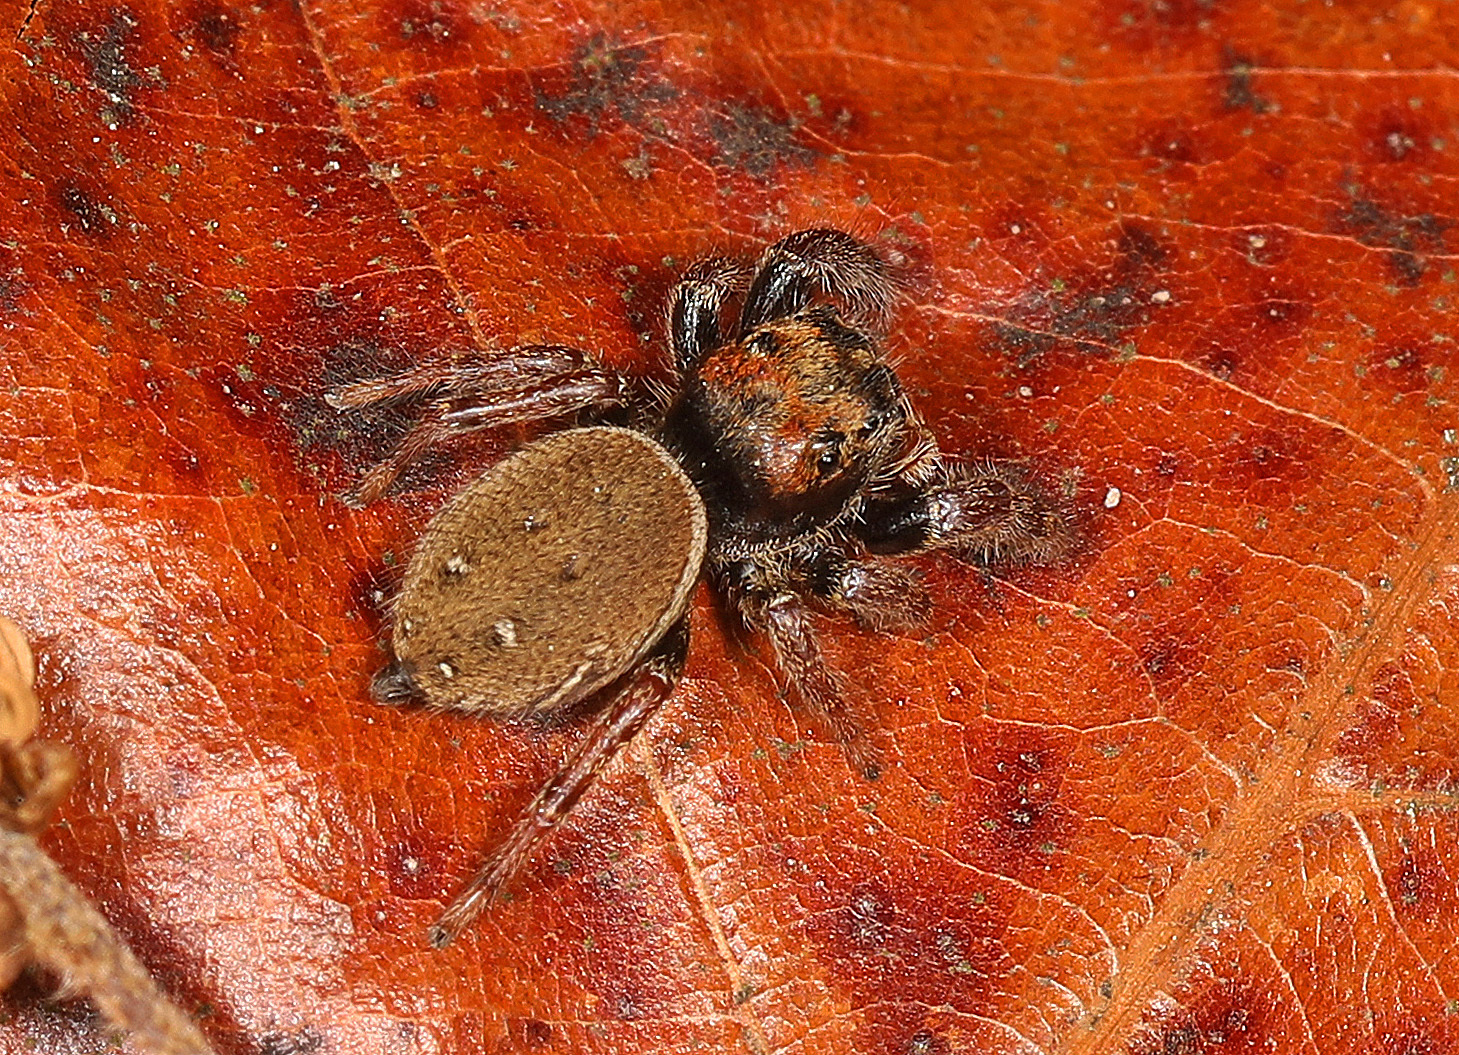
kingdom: Animalia
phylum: Arthropoda
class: Arachnida
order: Araneae
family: Salticidae
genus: Phidippus
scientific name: Phidippus whitmani
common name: Whitman's jumping spider
